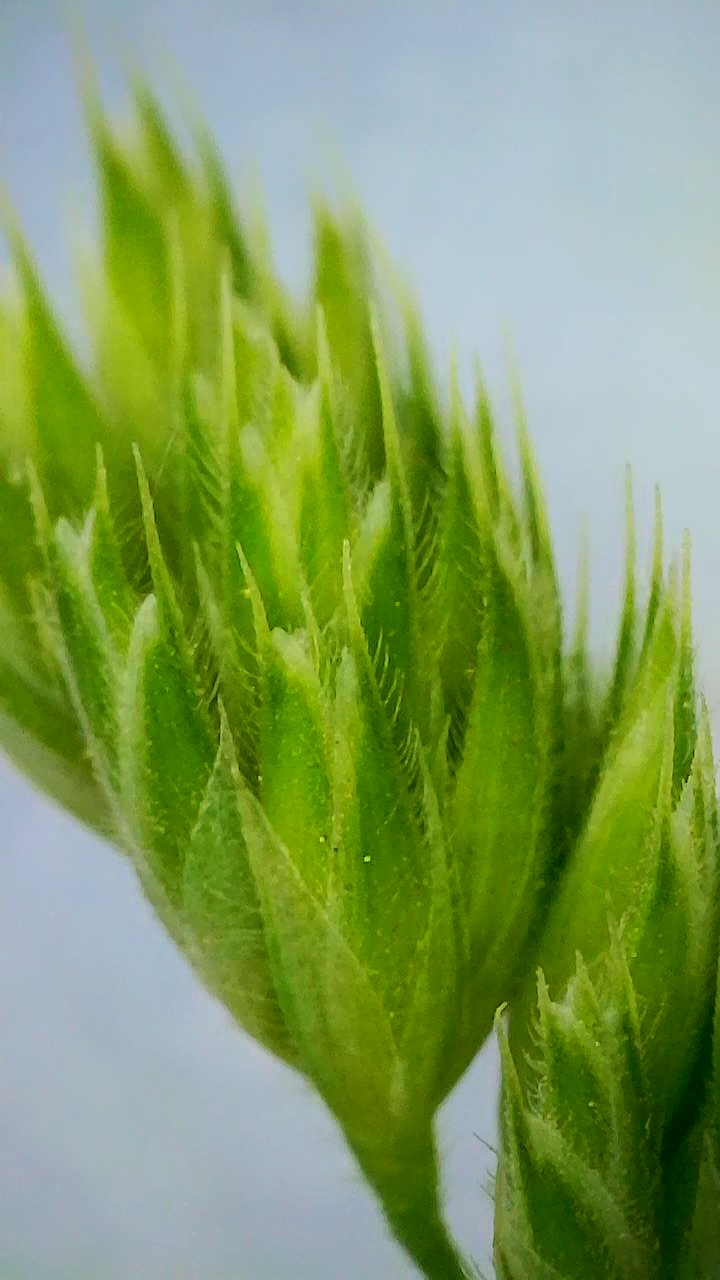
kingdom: Plantae
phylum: Tracheophyta
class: Liliopsida
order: Poales
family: Poaceae
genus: Dactylis
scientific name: Dactylis glomerata
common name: Orchardgrass
